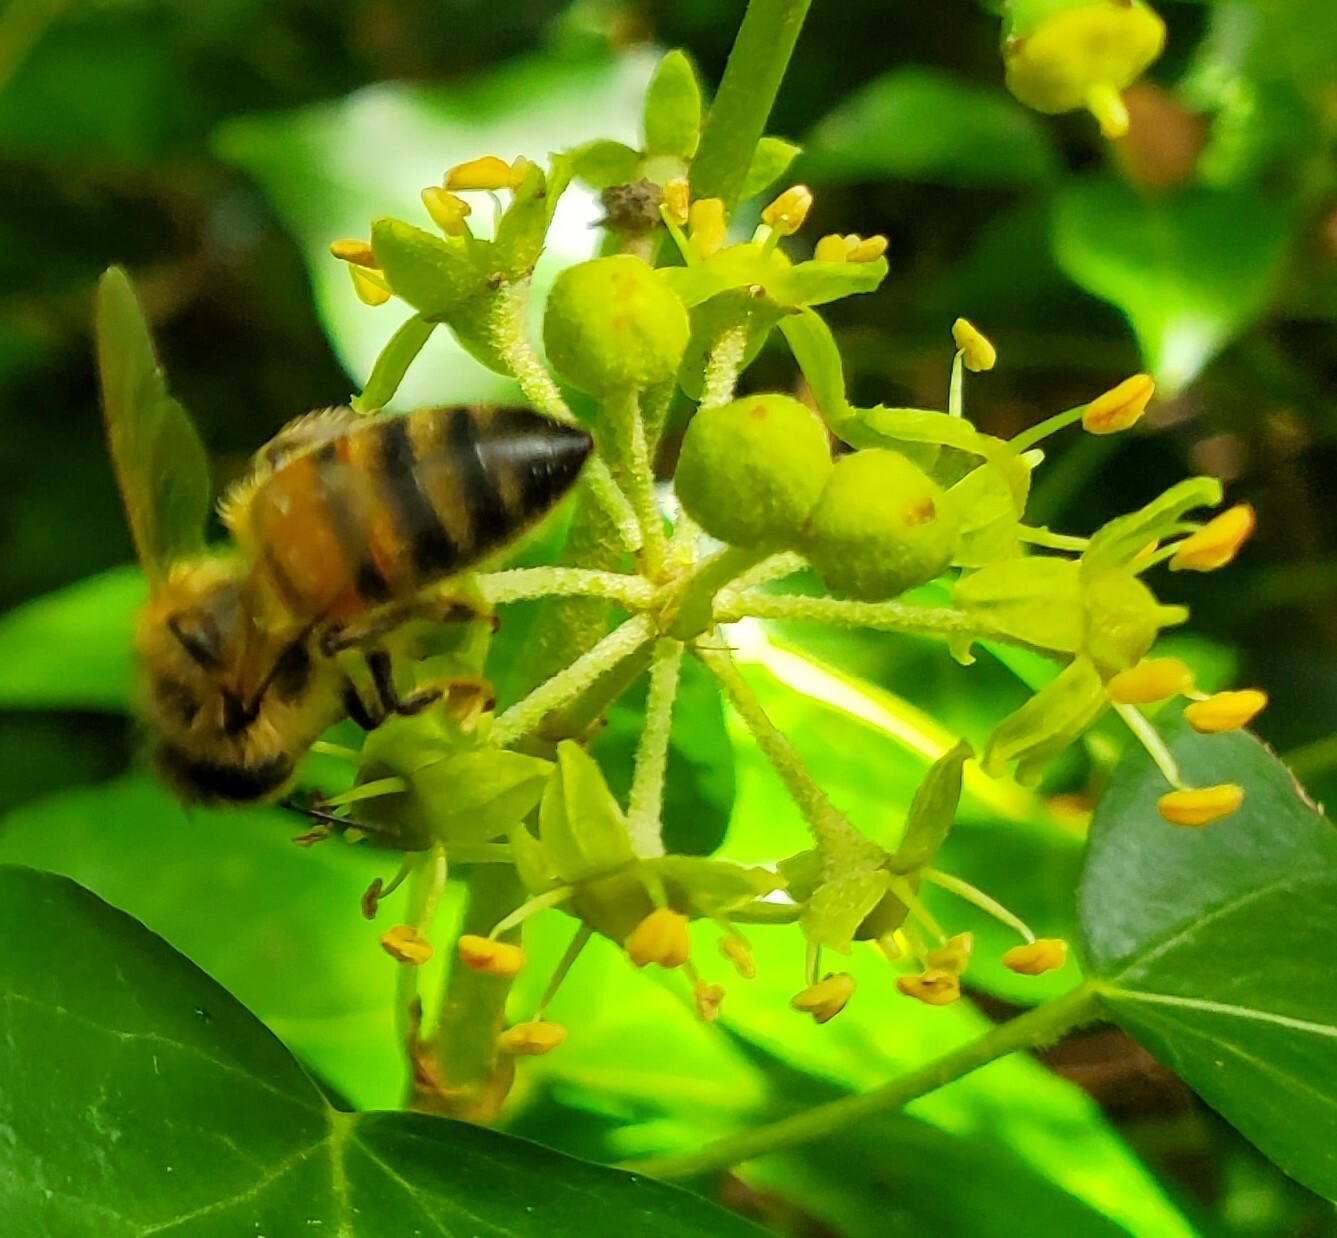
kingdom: Animalia
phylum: Arthropoda
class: Insecta
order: Hymenoptera
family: Apidae
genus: Apis
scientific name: Apis mellifera
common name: Honey bee
